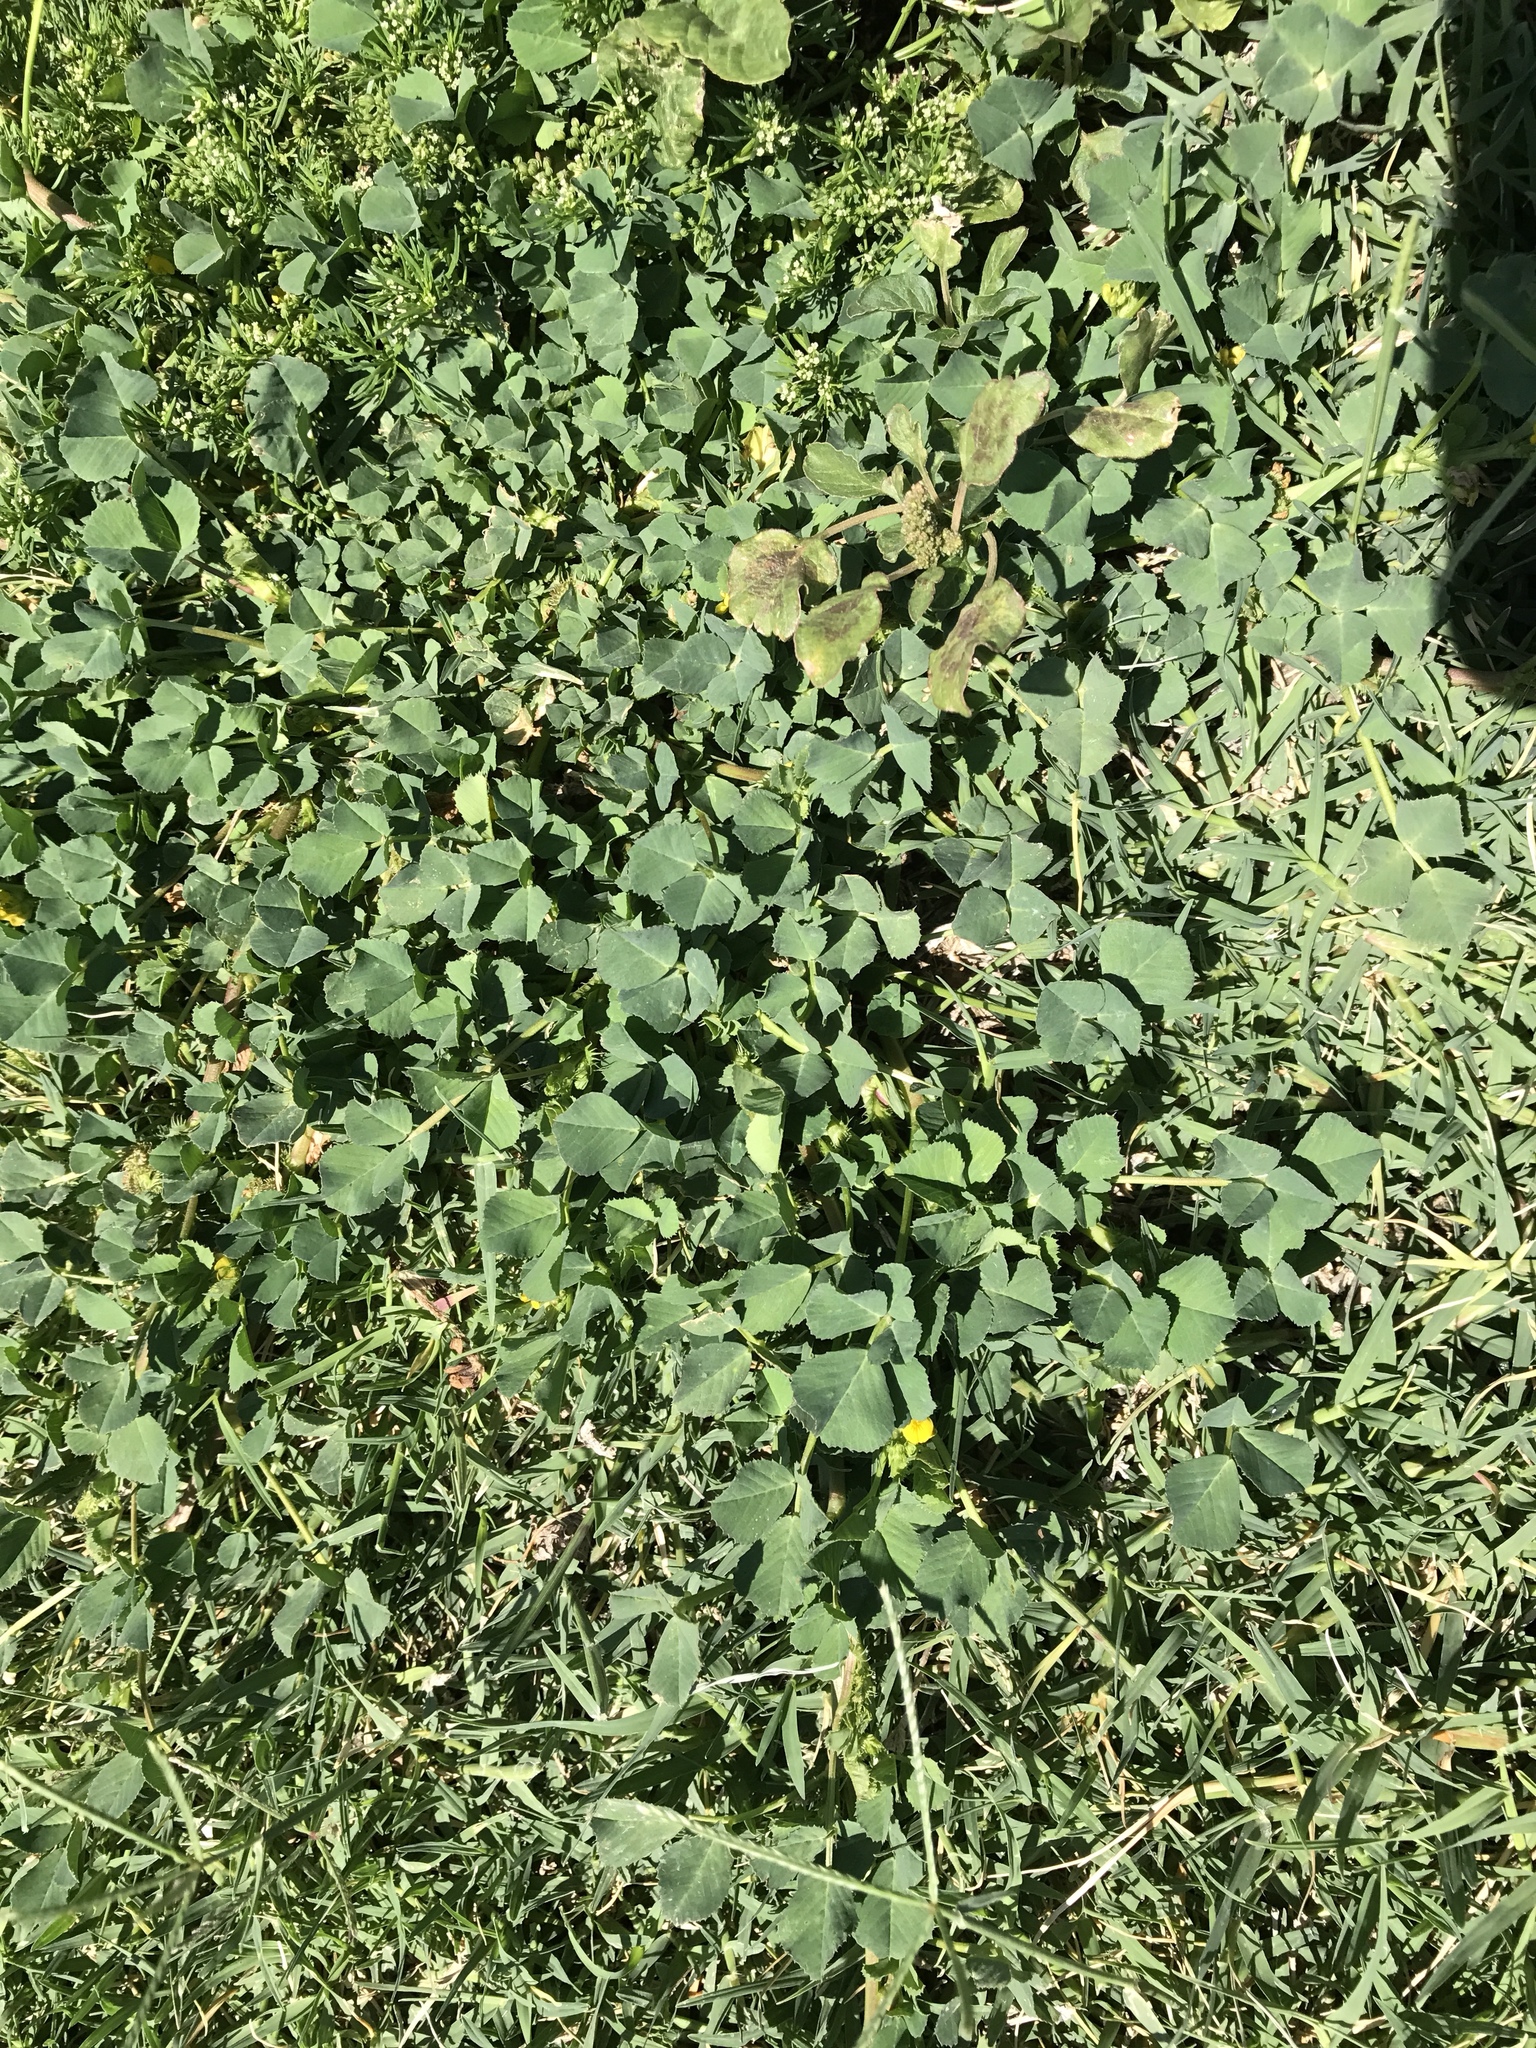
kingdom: Plantae
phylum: Tracheophyta
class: Magnoliopsida
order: Fabales
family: Fabaceae
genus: Medicago
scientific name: Medicago polymorpha
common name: Burclover
